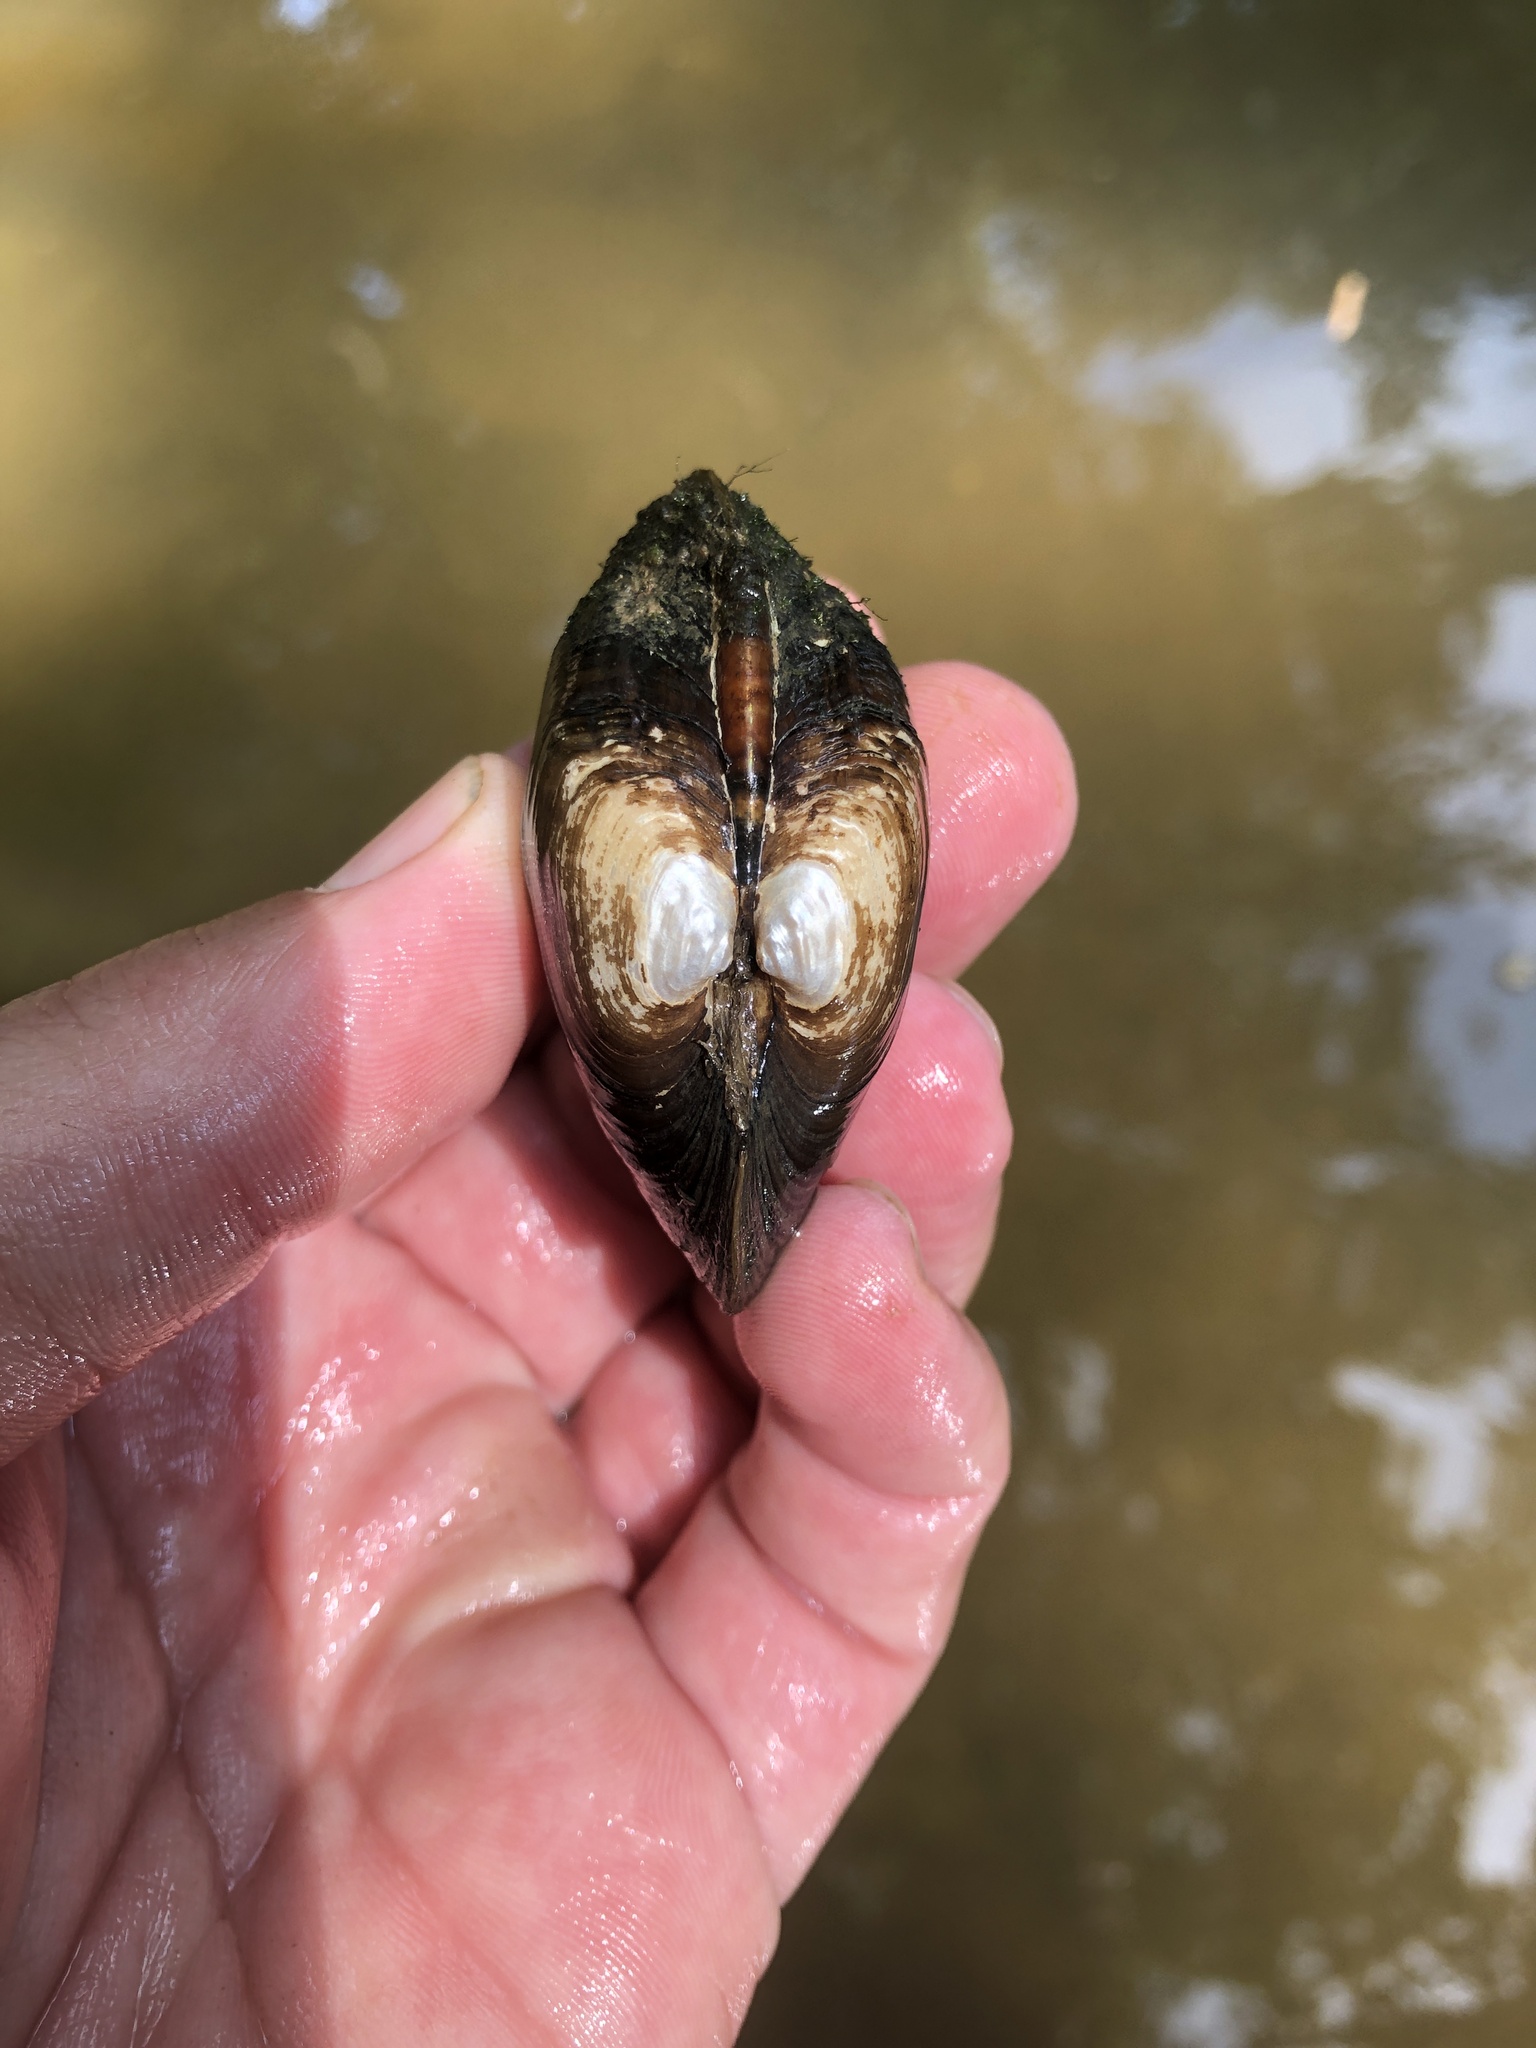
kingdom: Animalia
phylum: Mollusca
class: Bivalvia
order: Unionida
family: Unionidae
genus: Strophitus
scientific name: Strophitus undulatus
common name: Creeper
